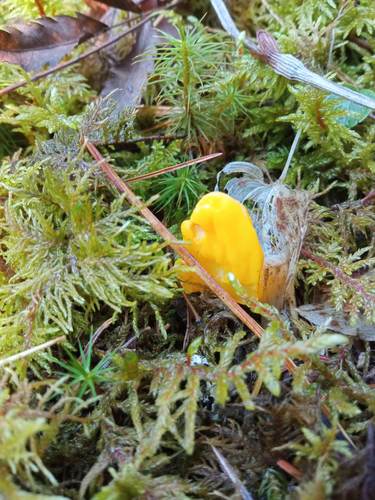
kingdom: Fungi
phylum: Ascomycota
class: Neolectomycetes
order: Neolectales
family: Neolectaceae
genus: Neolecta
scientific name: Neolecta vitellina
